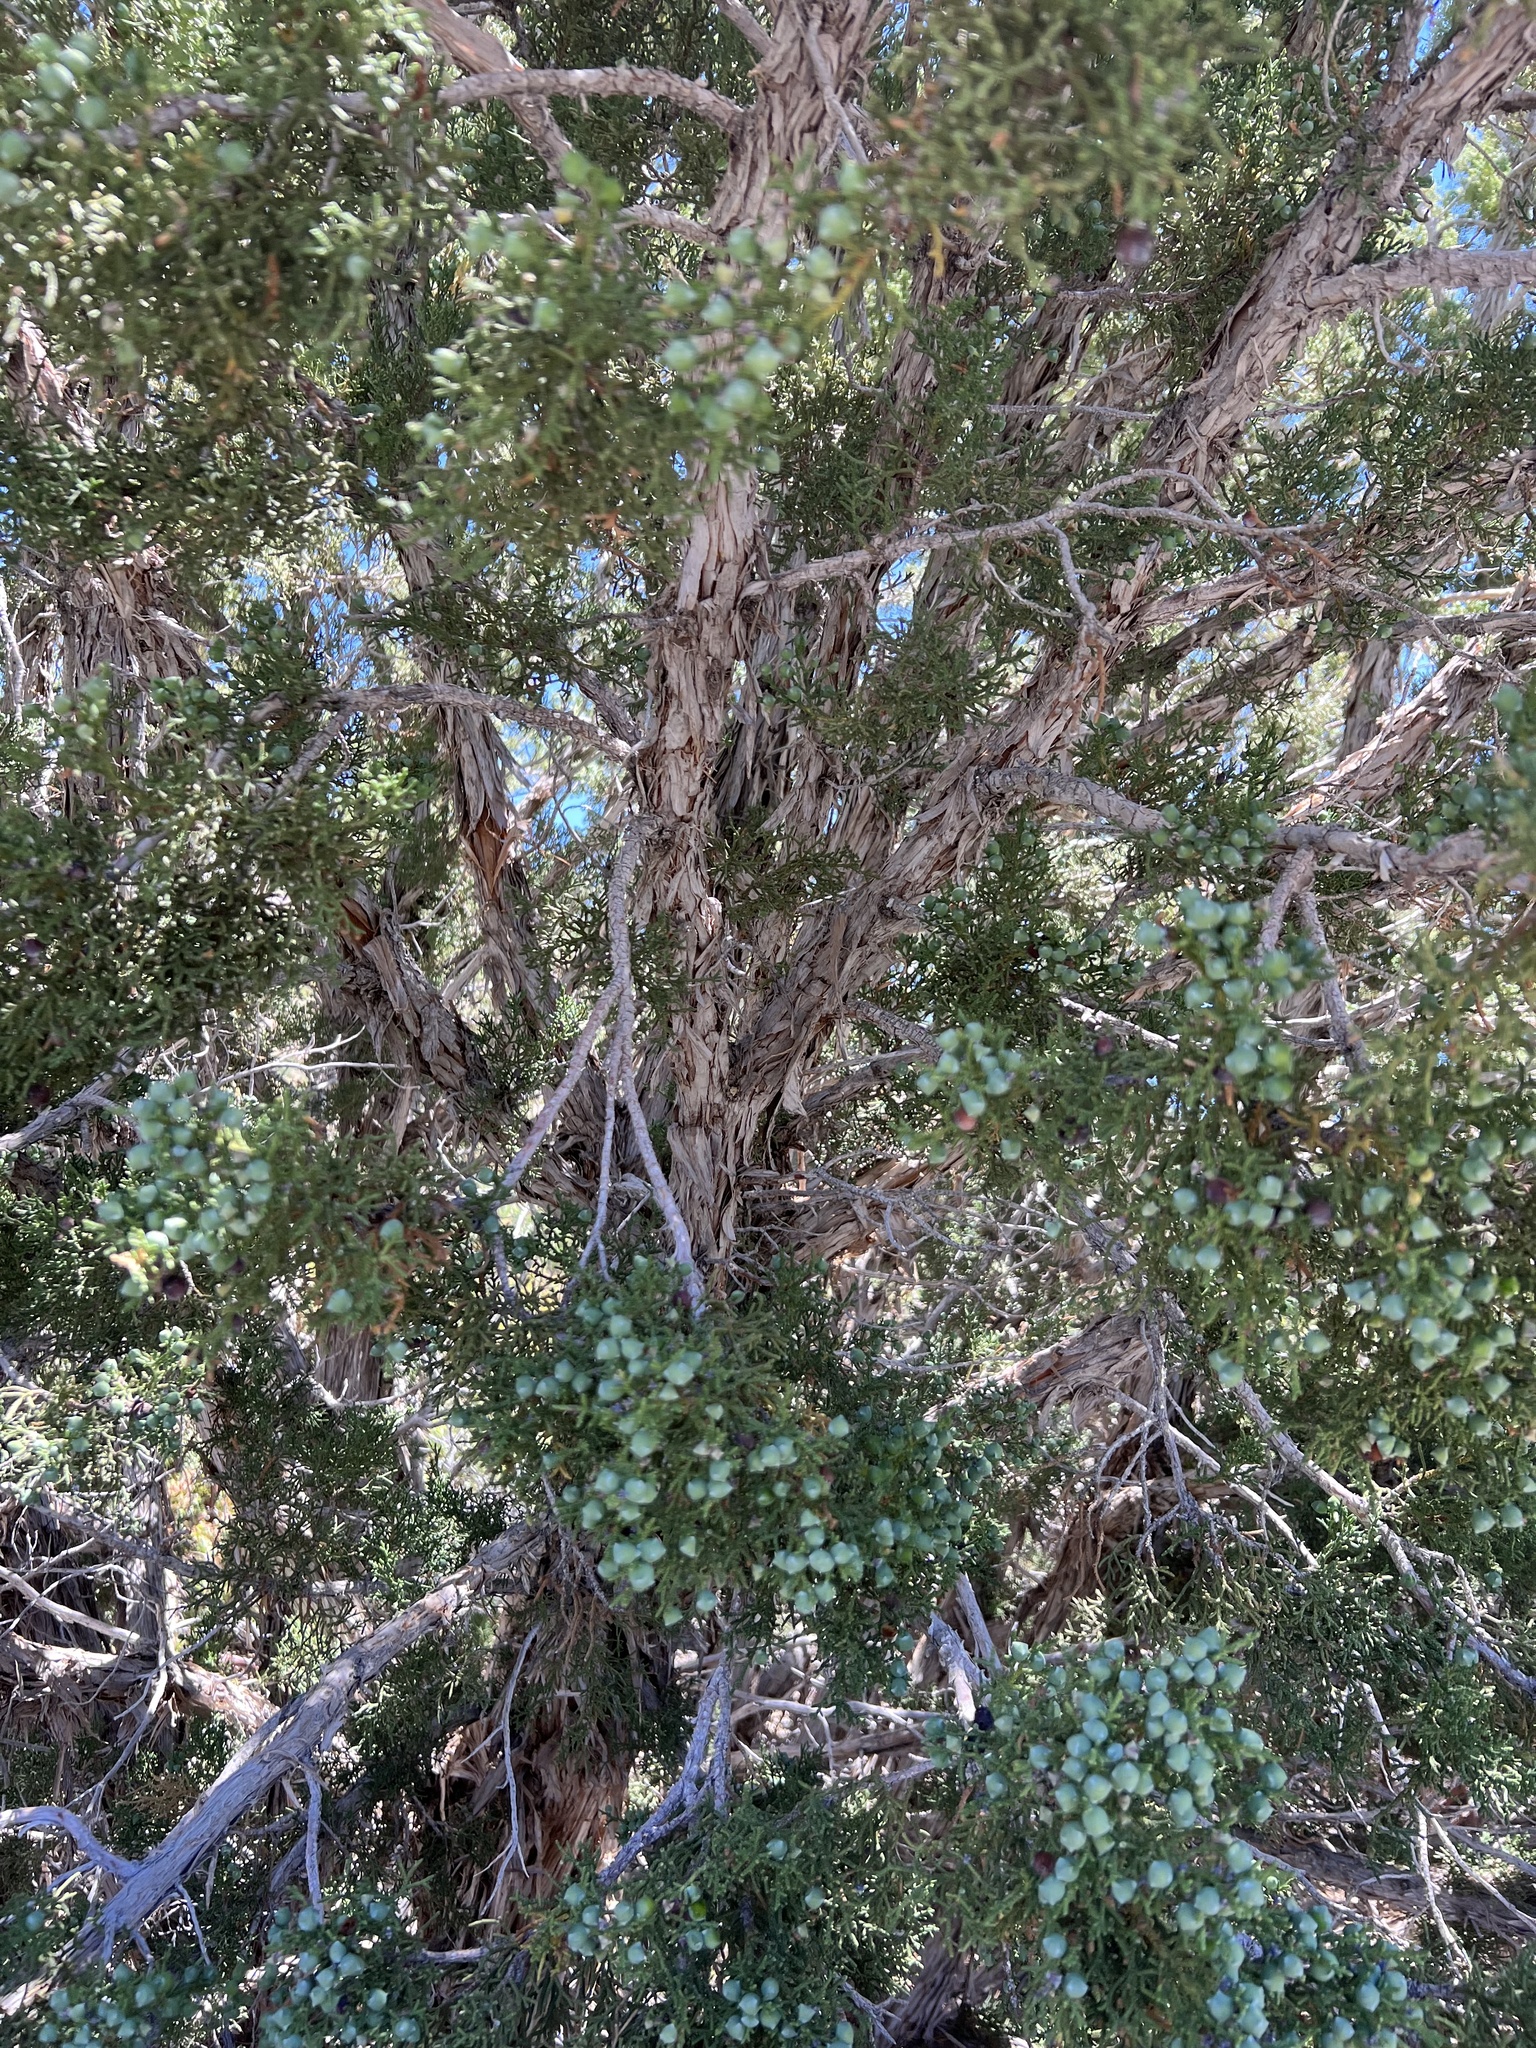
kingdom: Plantae
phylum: Tracheophyta
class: Pinopsida
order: Pinales
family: Cupressaceae
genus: Juniperus
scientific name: Juniperus osteosperma
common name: Utah juniper
